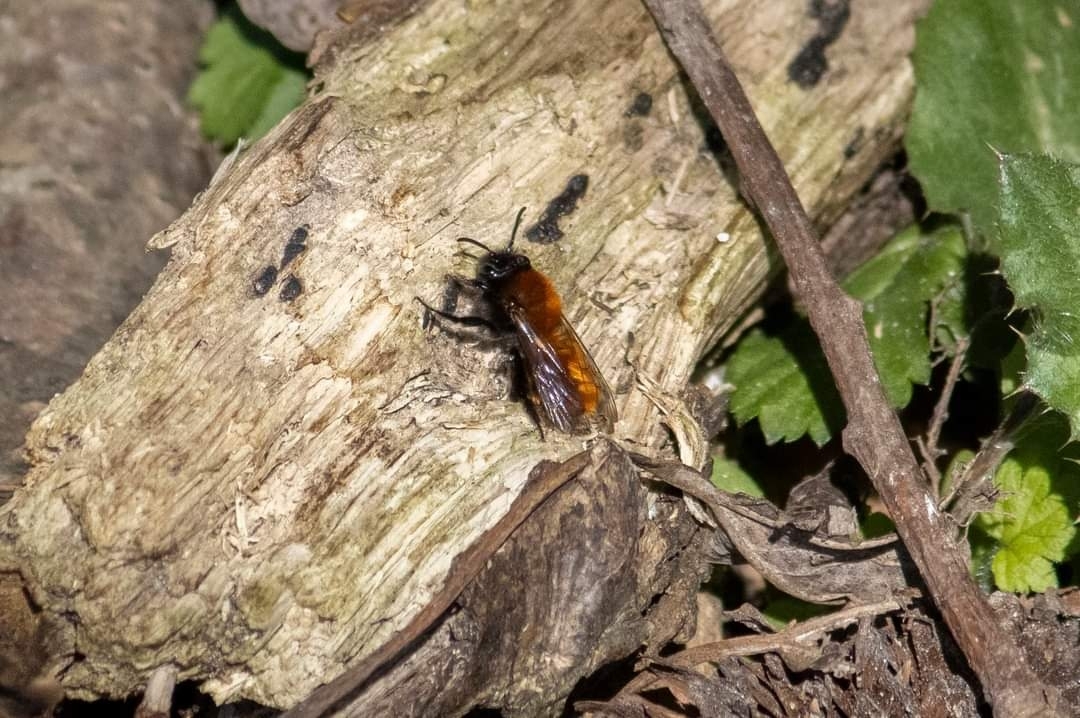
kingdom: Animalia
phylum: Arthropoda
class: Insecta
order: Hymenoptera
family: Andrenidae
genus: Andrena
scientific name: Andrena fulva
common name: Tawny mining bee
